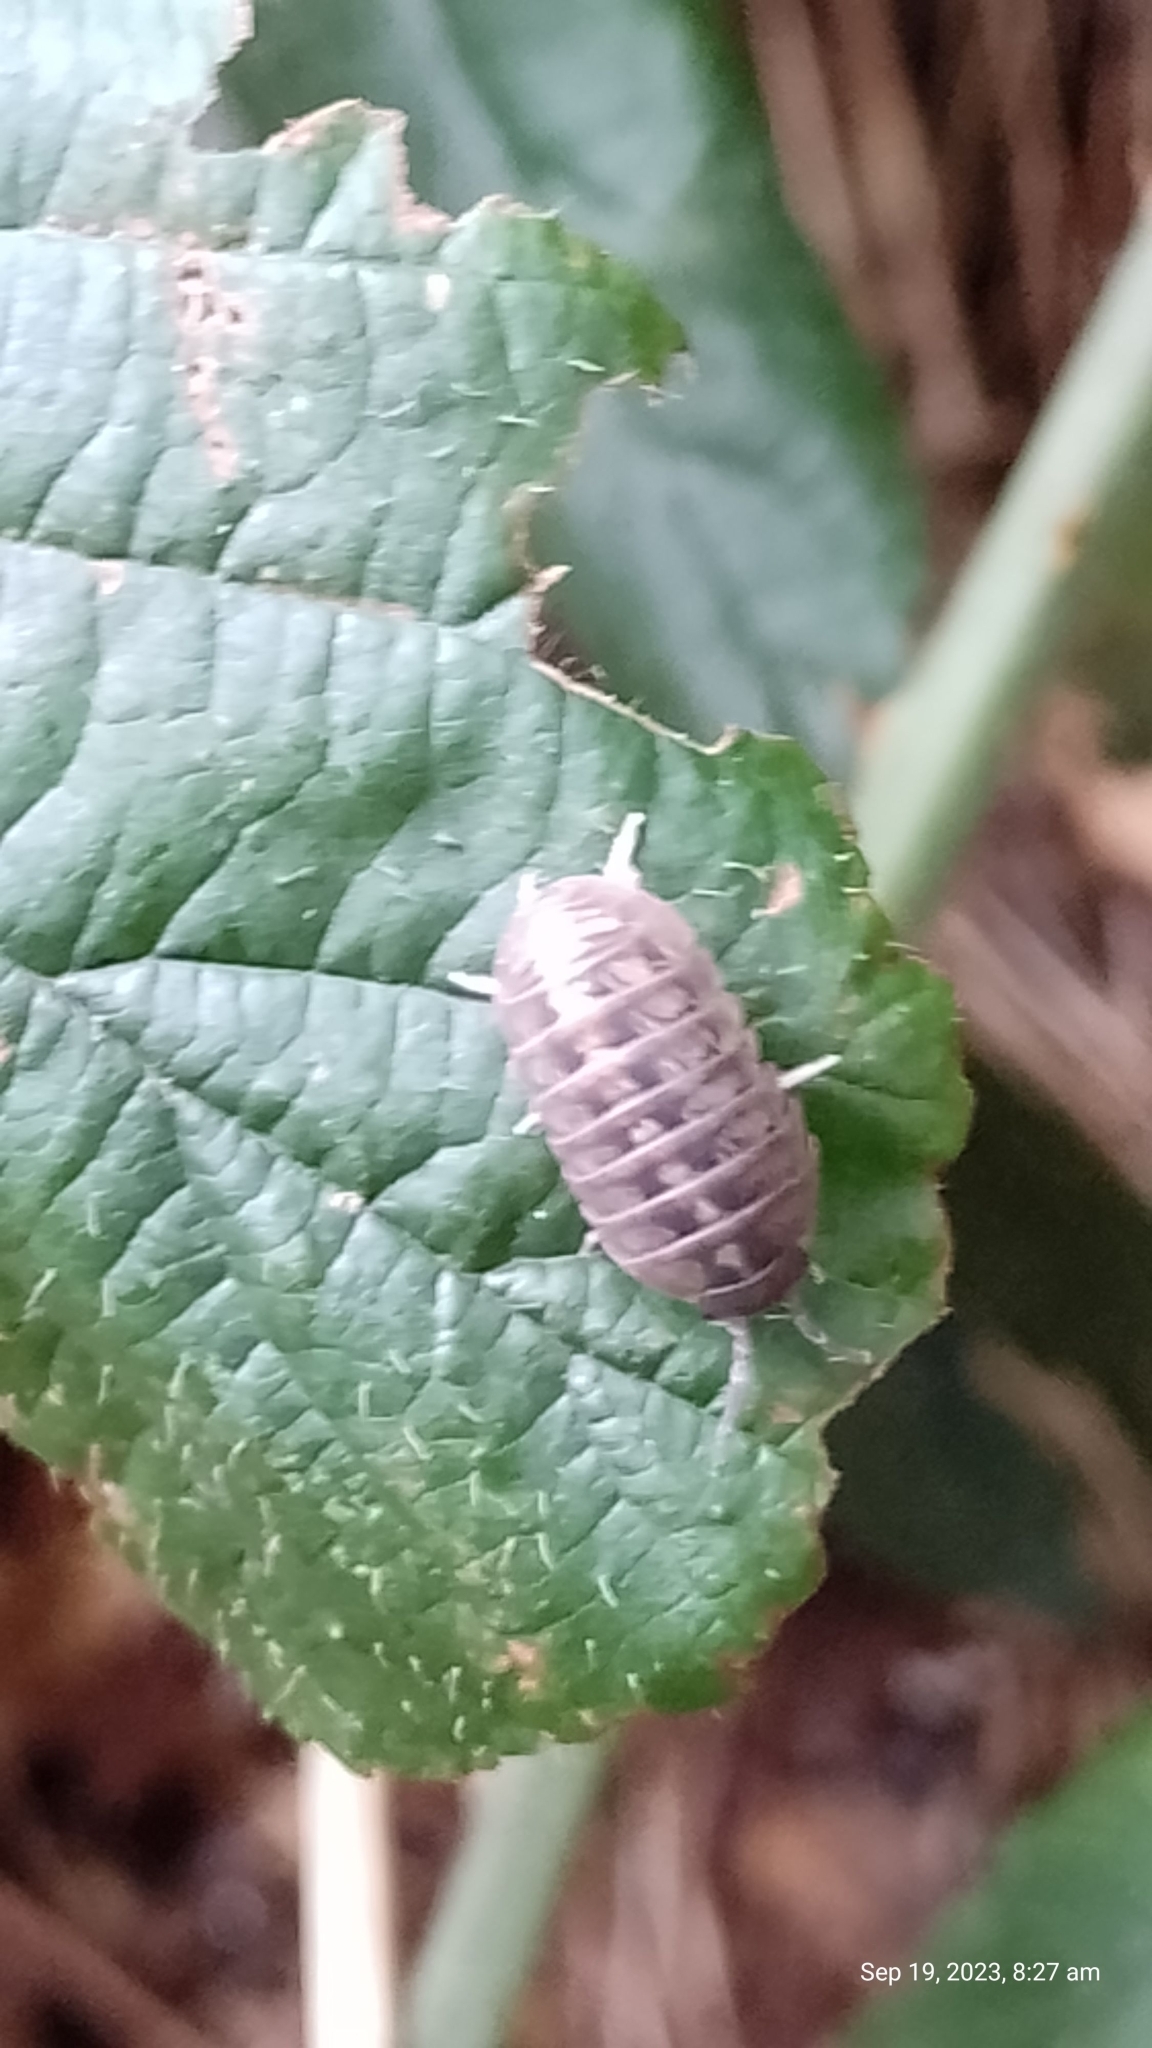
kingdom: Animalia
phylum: Arthropoda
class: Malacostraca
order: Isopoda
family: Armadillidiidae
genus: Armadillidium
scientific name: Armadillidium vulgare
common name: Common pill woodlouse
